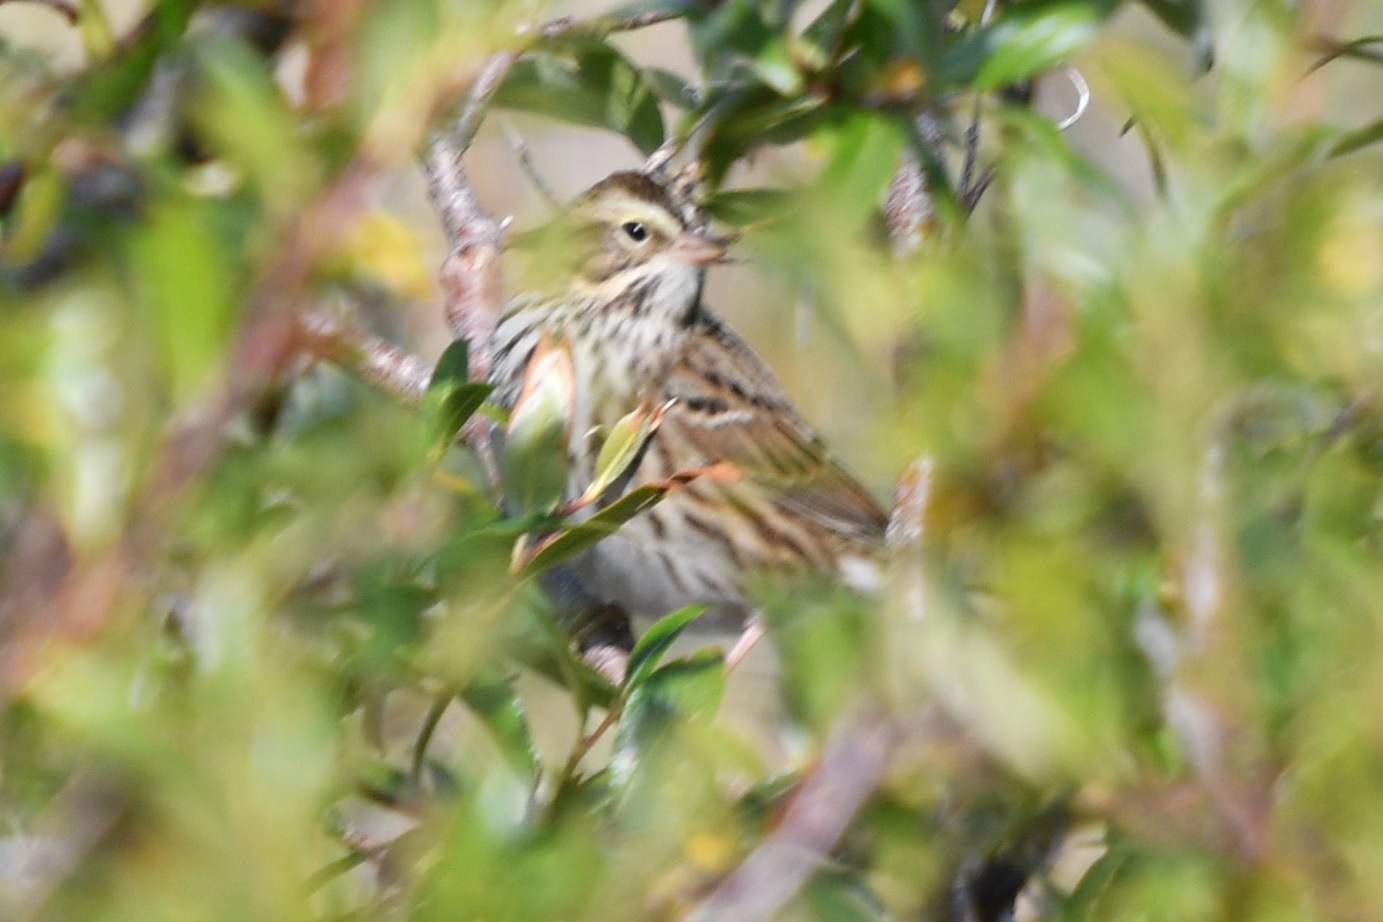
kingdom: Animalia
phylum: Chordata
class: Aves
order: Passeriformes
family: Passerellidae
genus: Passerculus
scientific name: Passerculus sandwichensis
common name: Savannah sparrow
